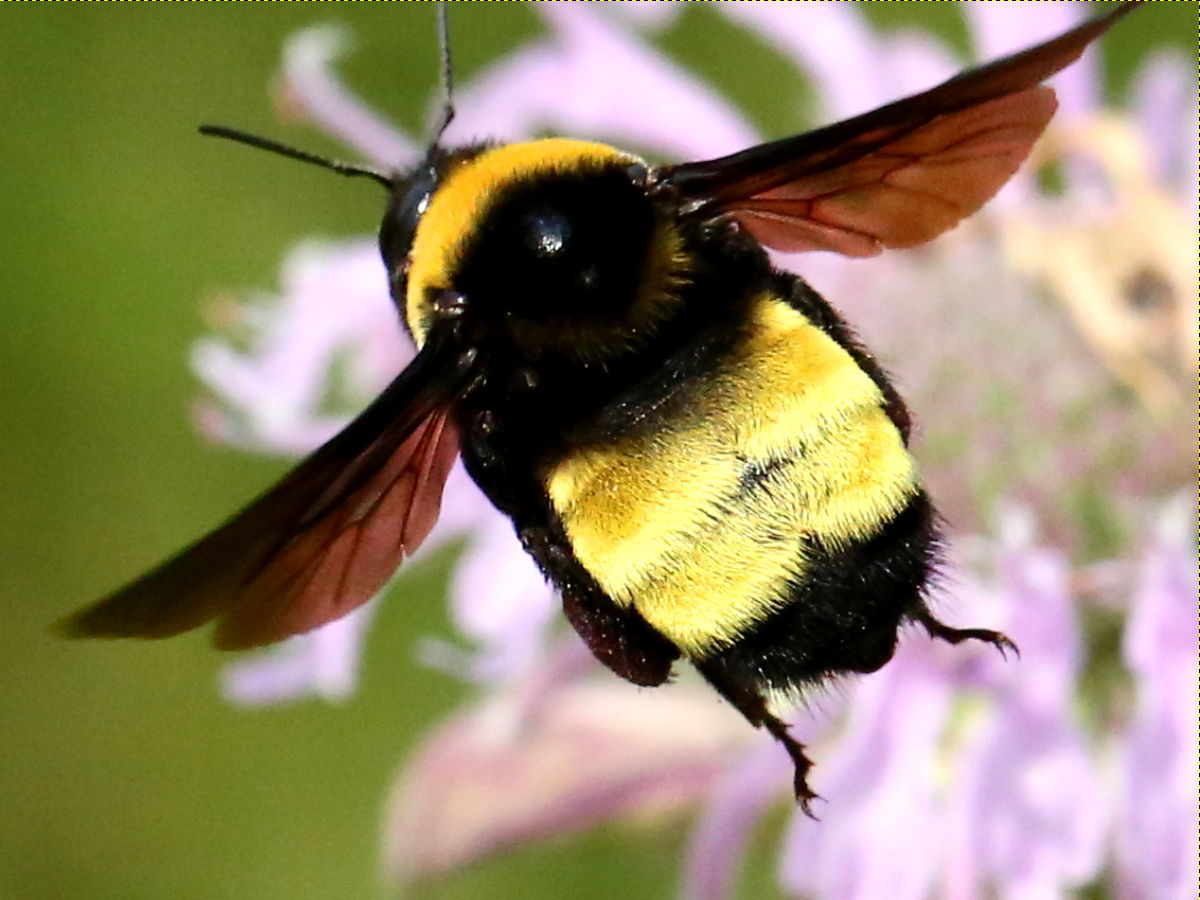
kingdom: Animalia
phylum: Arthropoda
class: Insecta
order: Hymenoptera
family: Apidae
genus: Bombus
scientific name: Bombus auricomus
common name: Black and gold bumble bee
